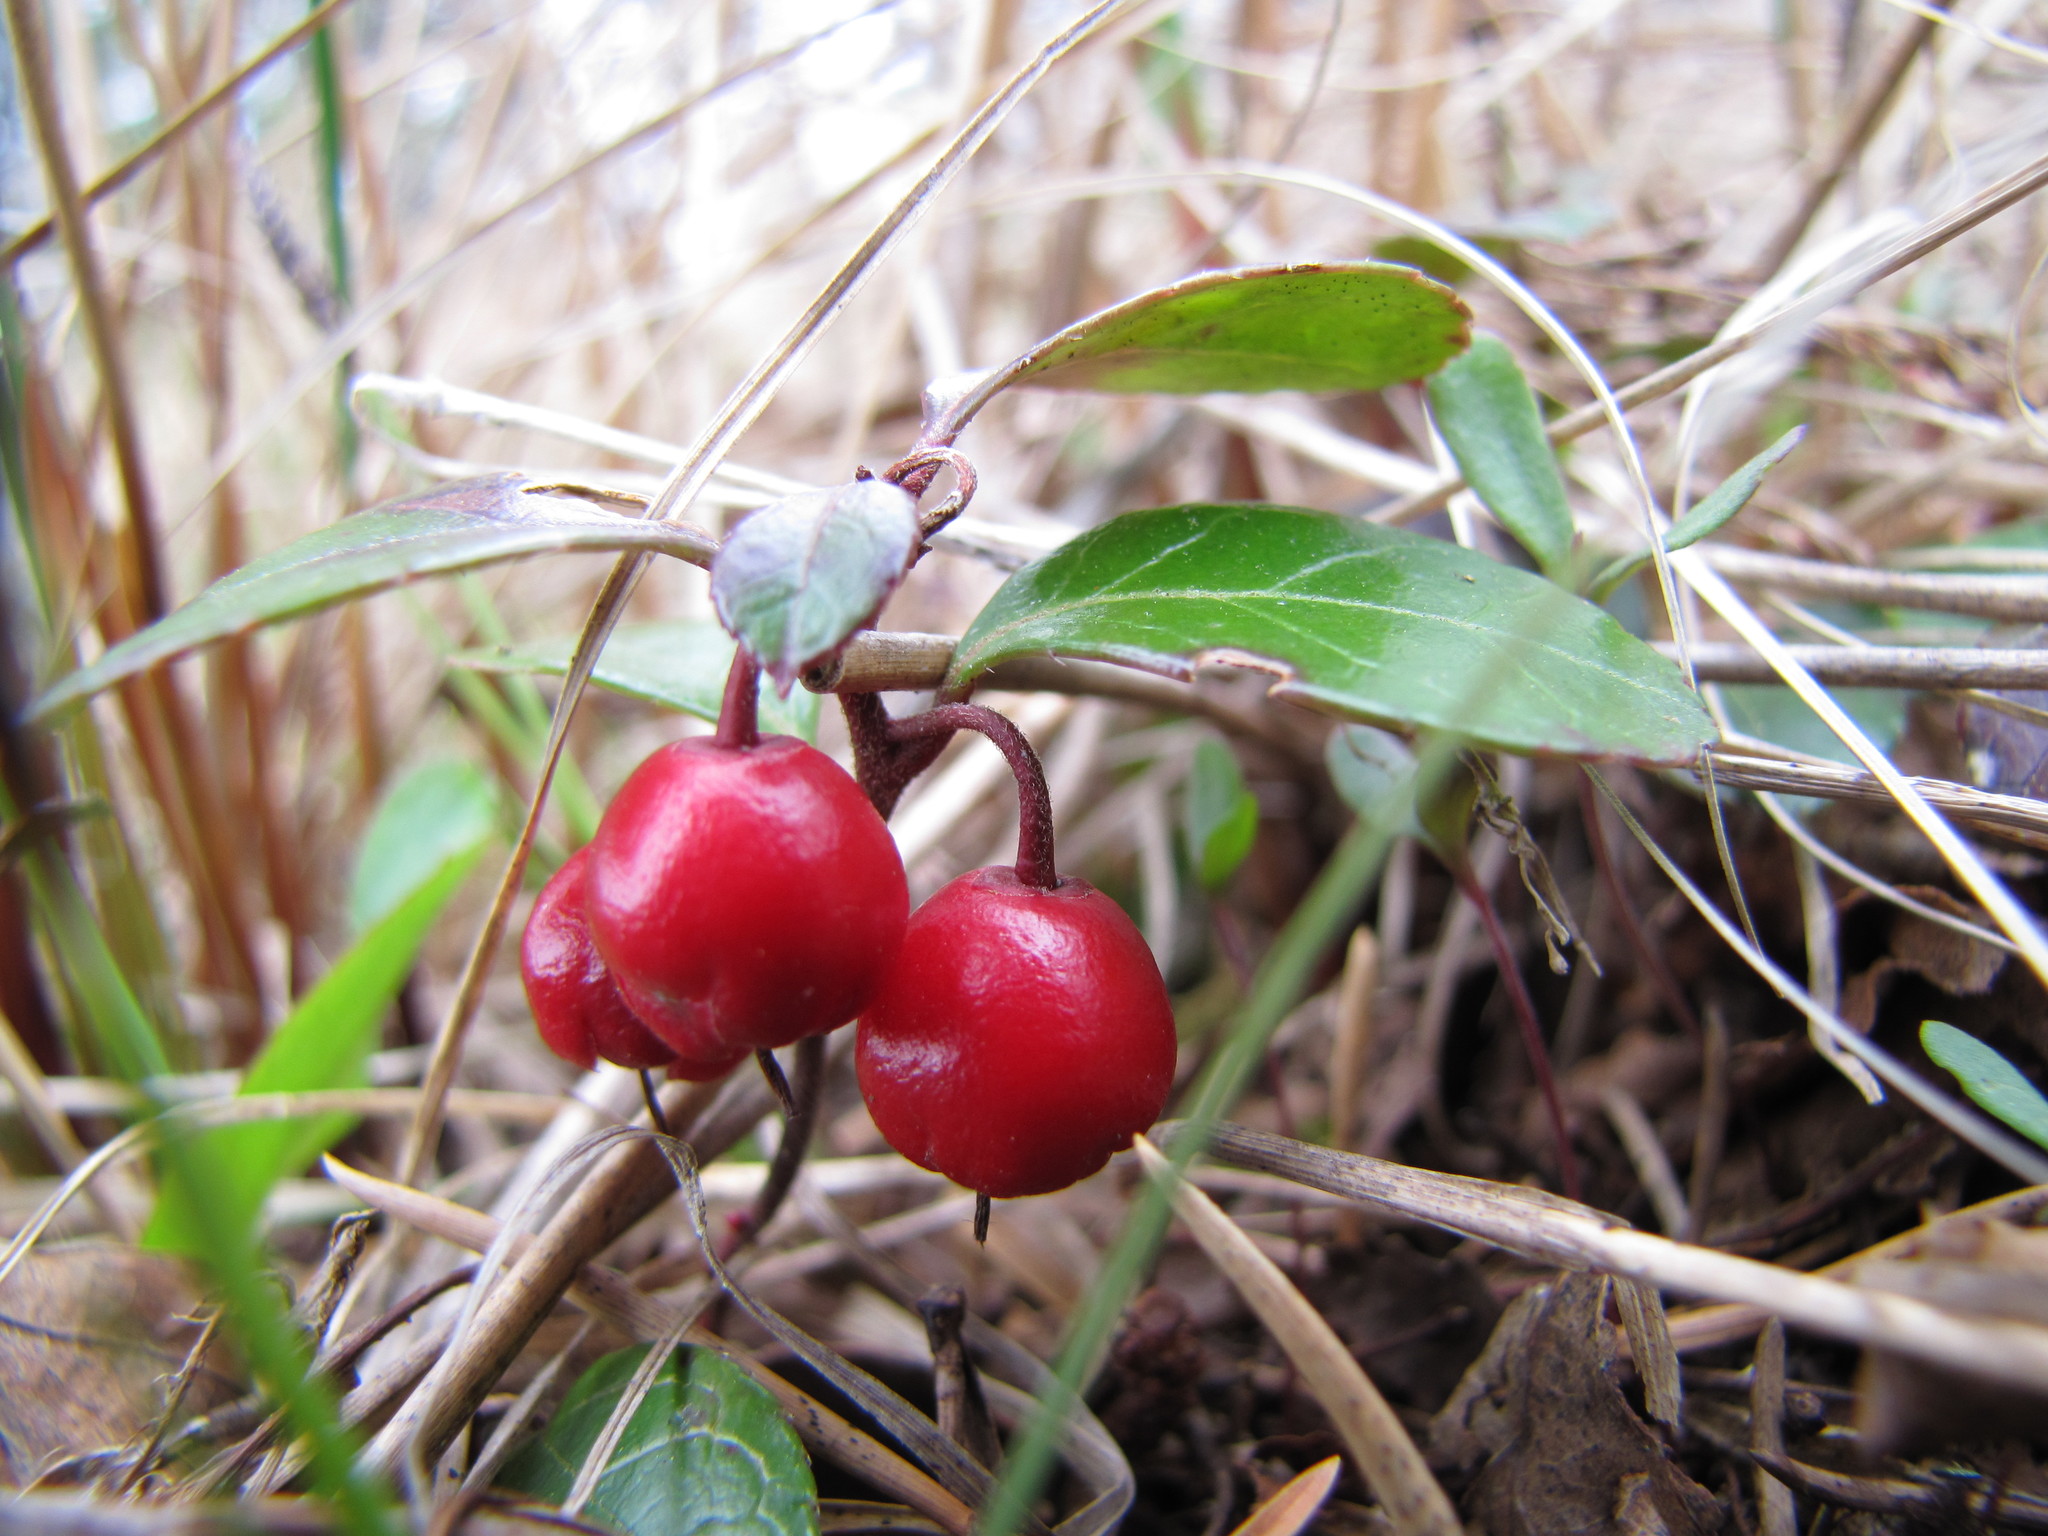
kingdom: Plantae
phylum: Tracheophyta
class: Magnoliopsida
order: Ericales
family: Ericaceae
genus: Gaultheria
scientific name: Gaultheria procumbens
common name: Checkerberry
